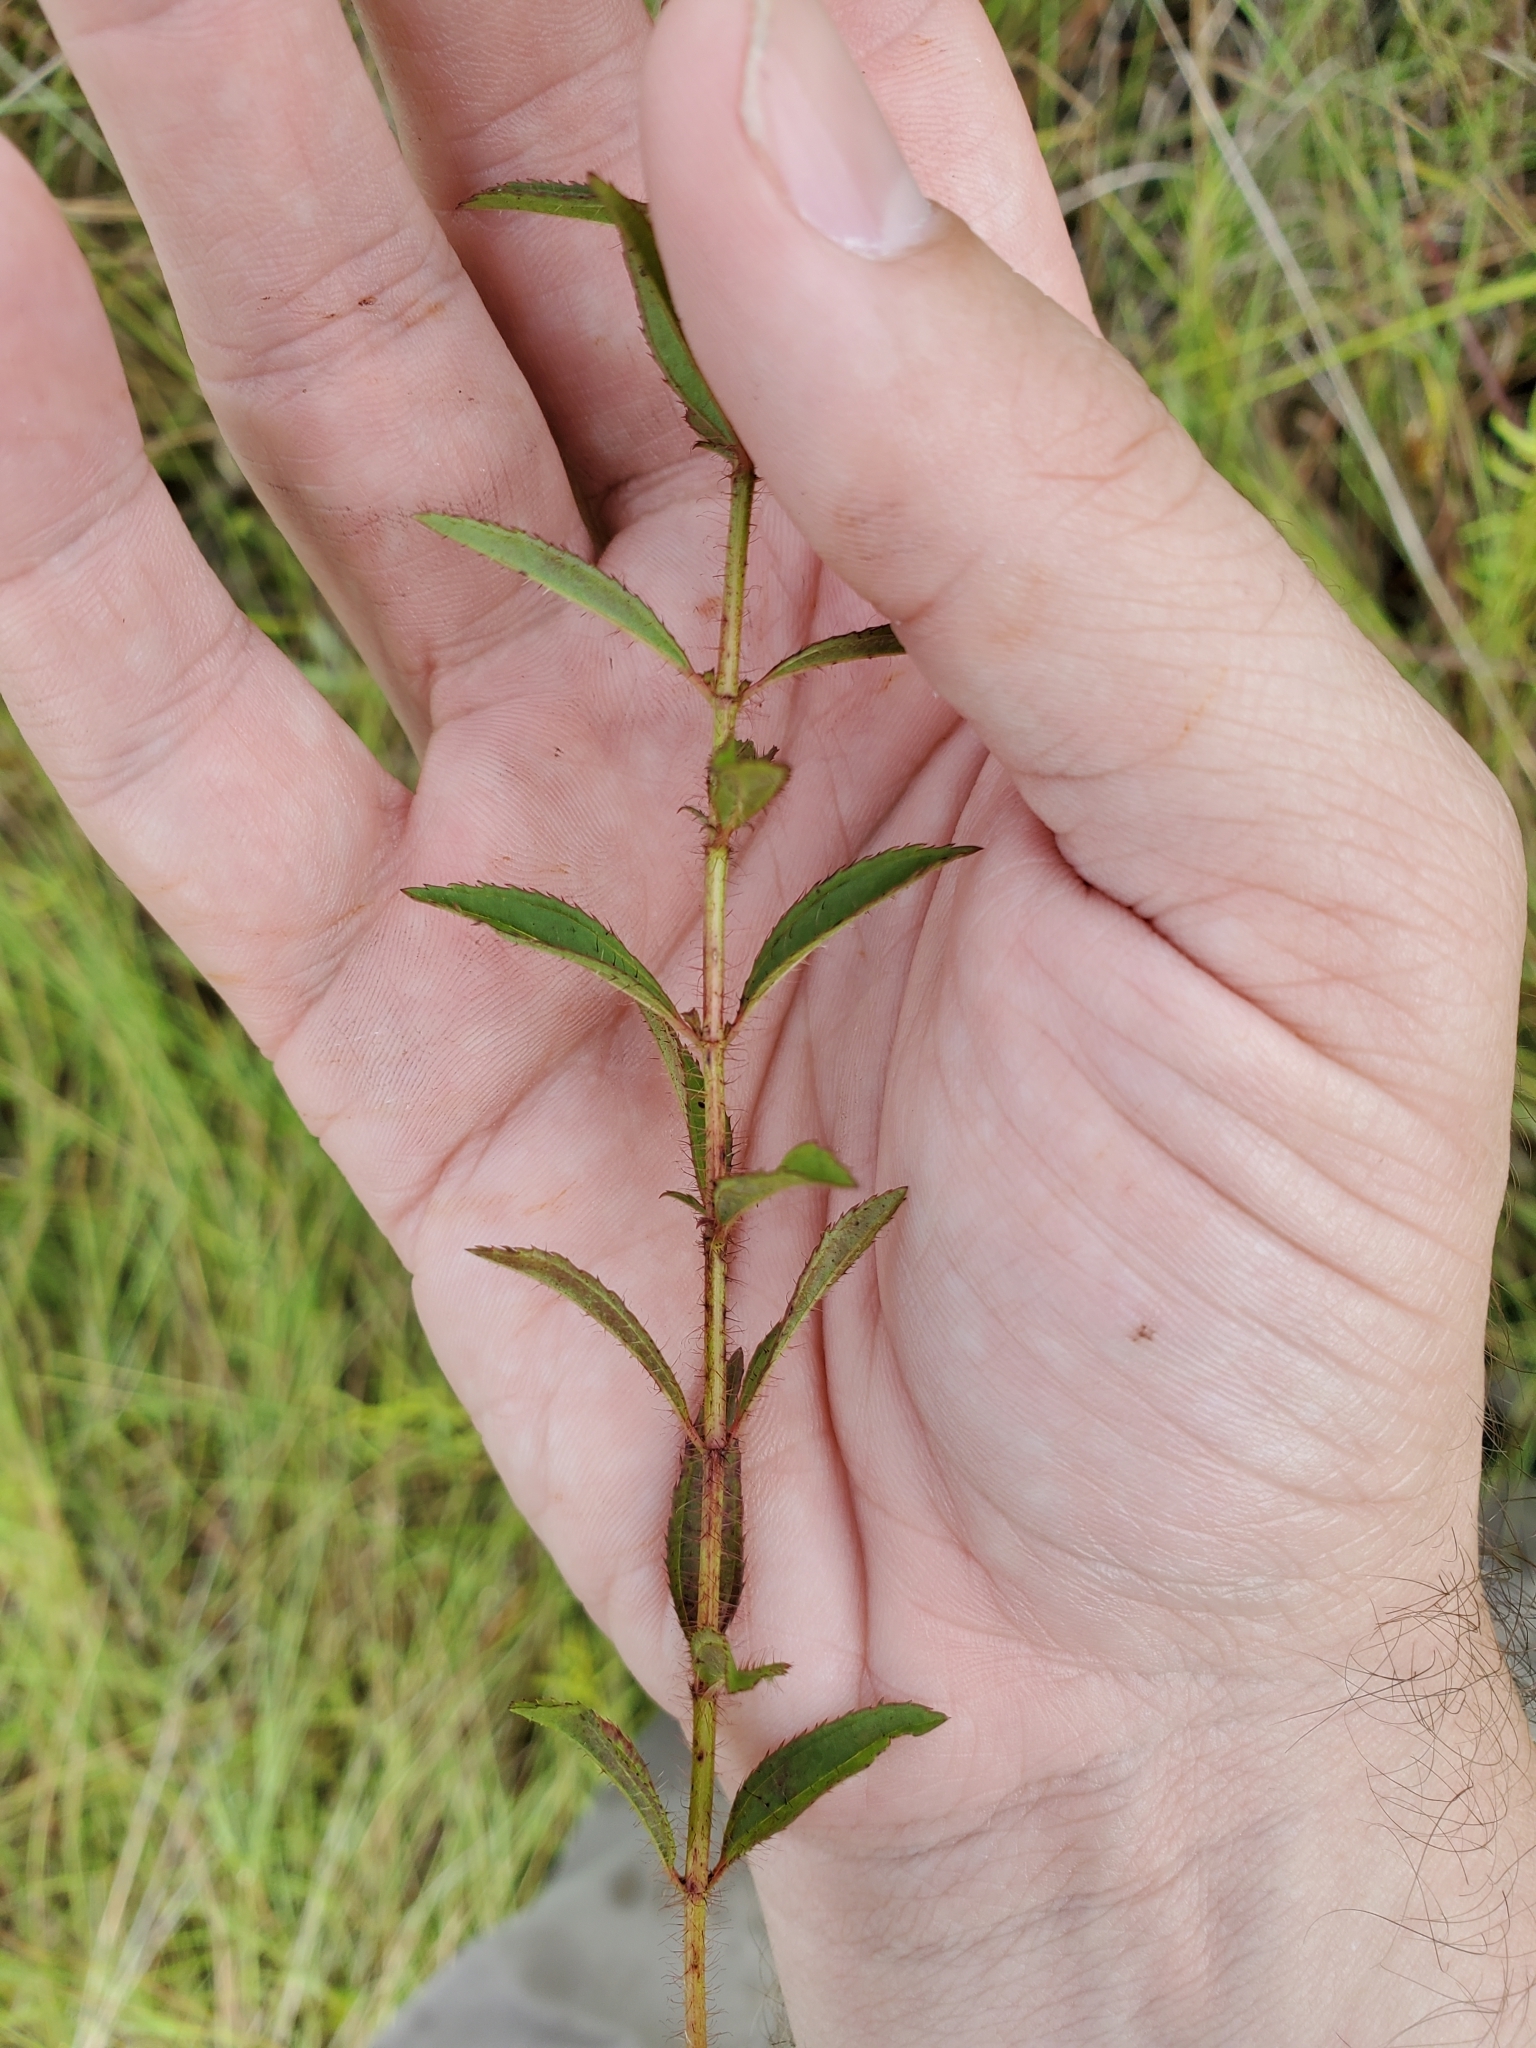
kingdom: Plantae
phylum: Tracheophyta
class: Magnoliopsida
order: Myrtales
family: Melastomataceae
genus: Rhexia
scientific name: Rhexia mariana
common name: Dull meadow-pitcher
